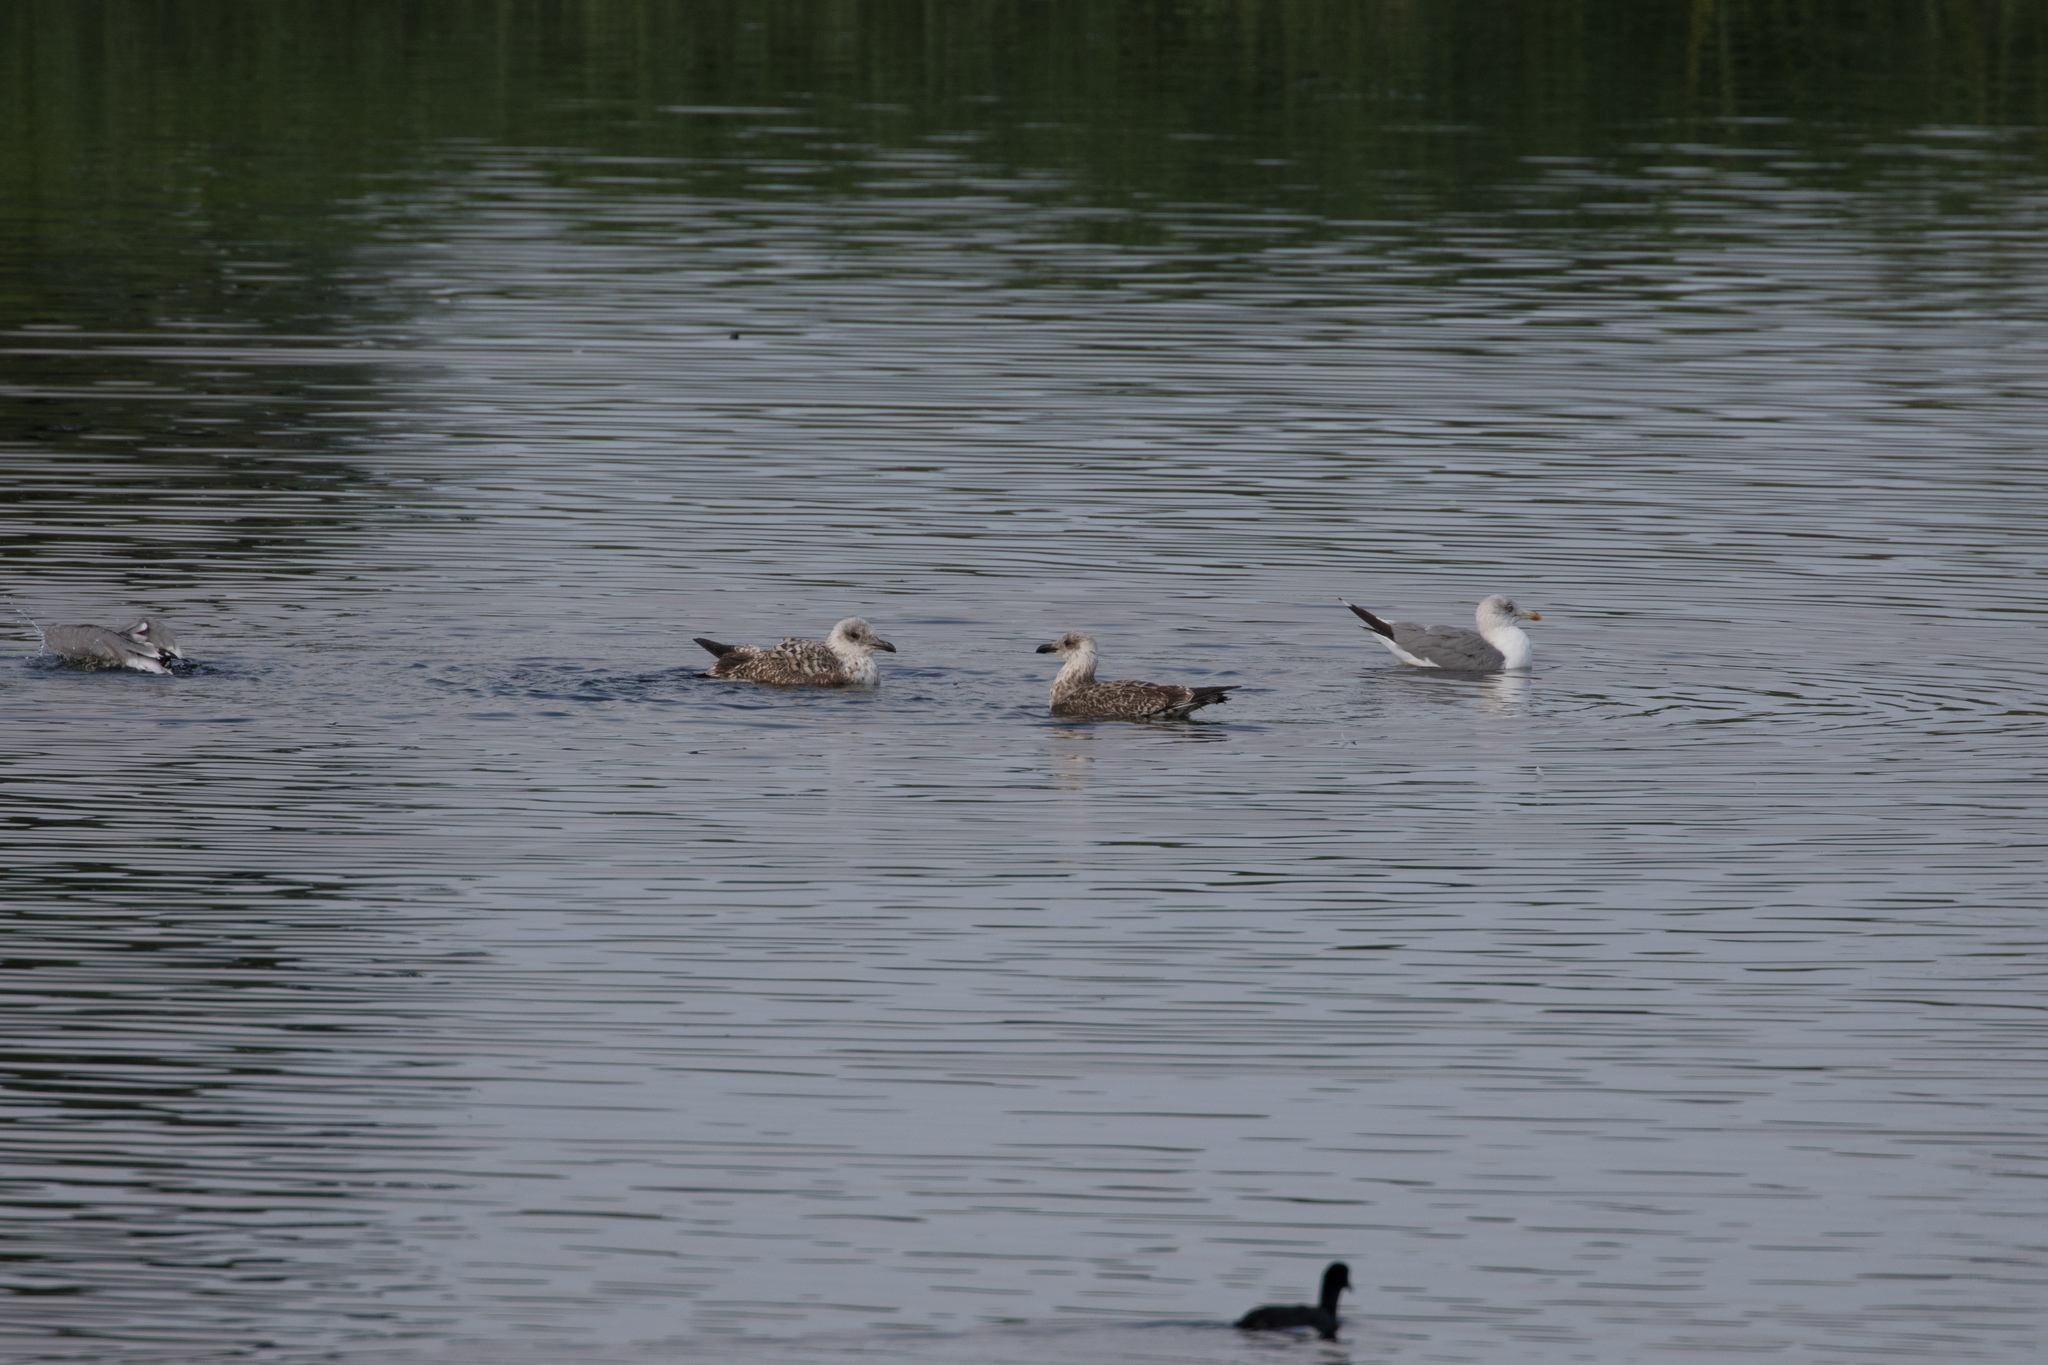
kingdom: Animalia
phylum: Chordata
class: Aves
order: Charadriiformes
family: Laridae
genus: Larus
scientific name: Larus michahellis
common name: Yellow-legged gull
